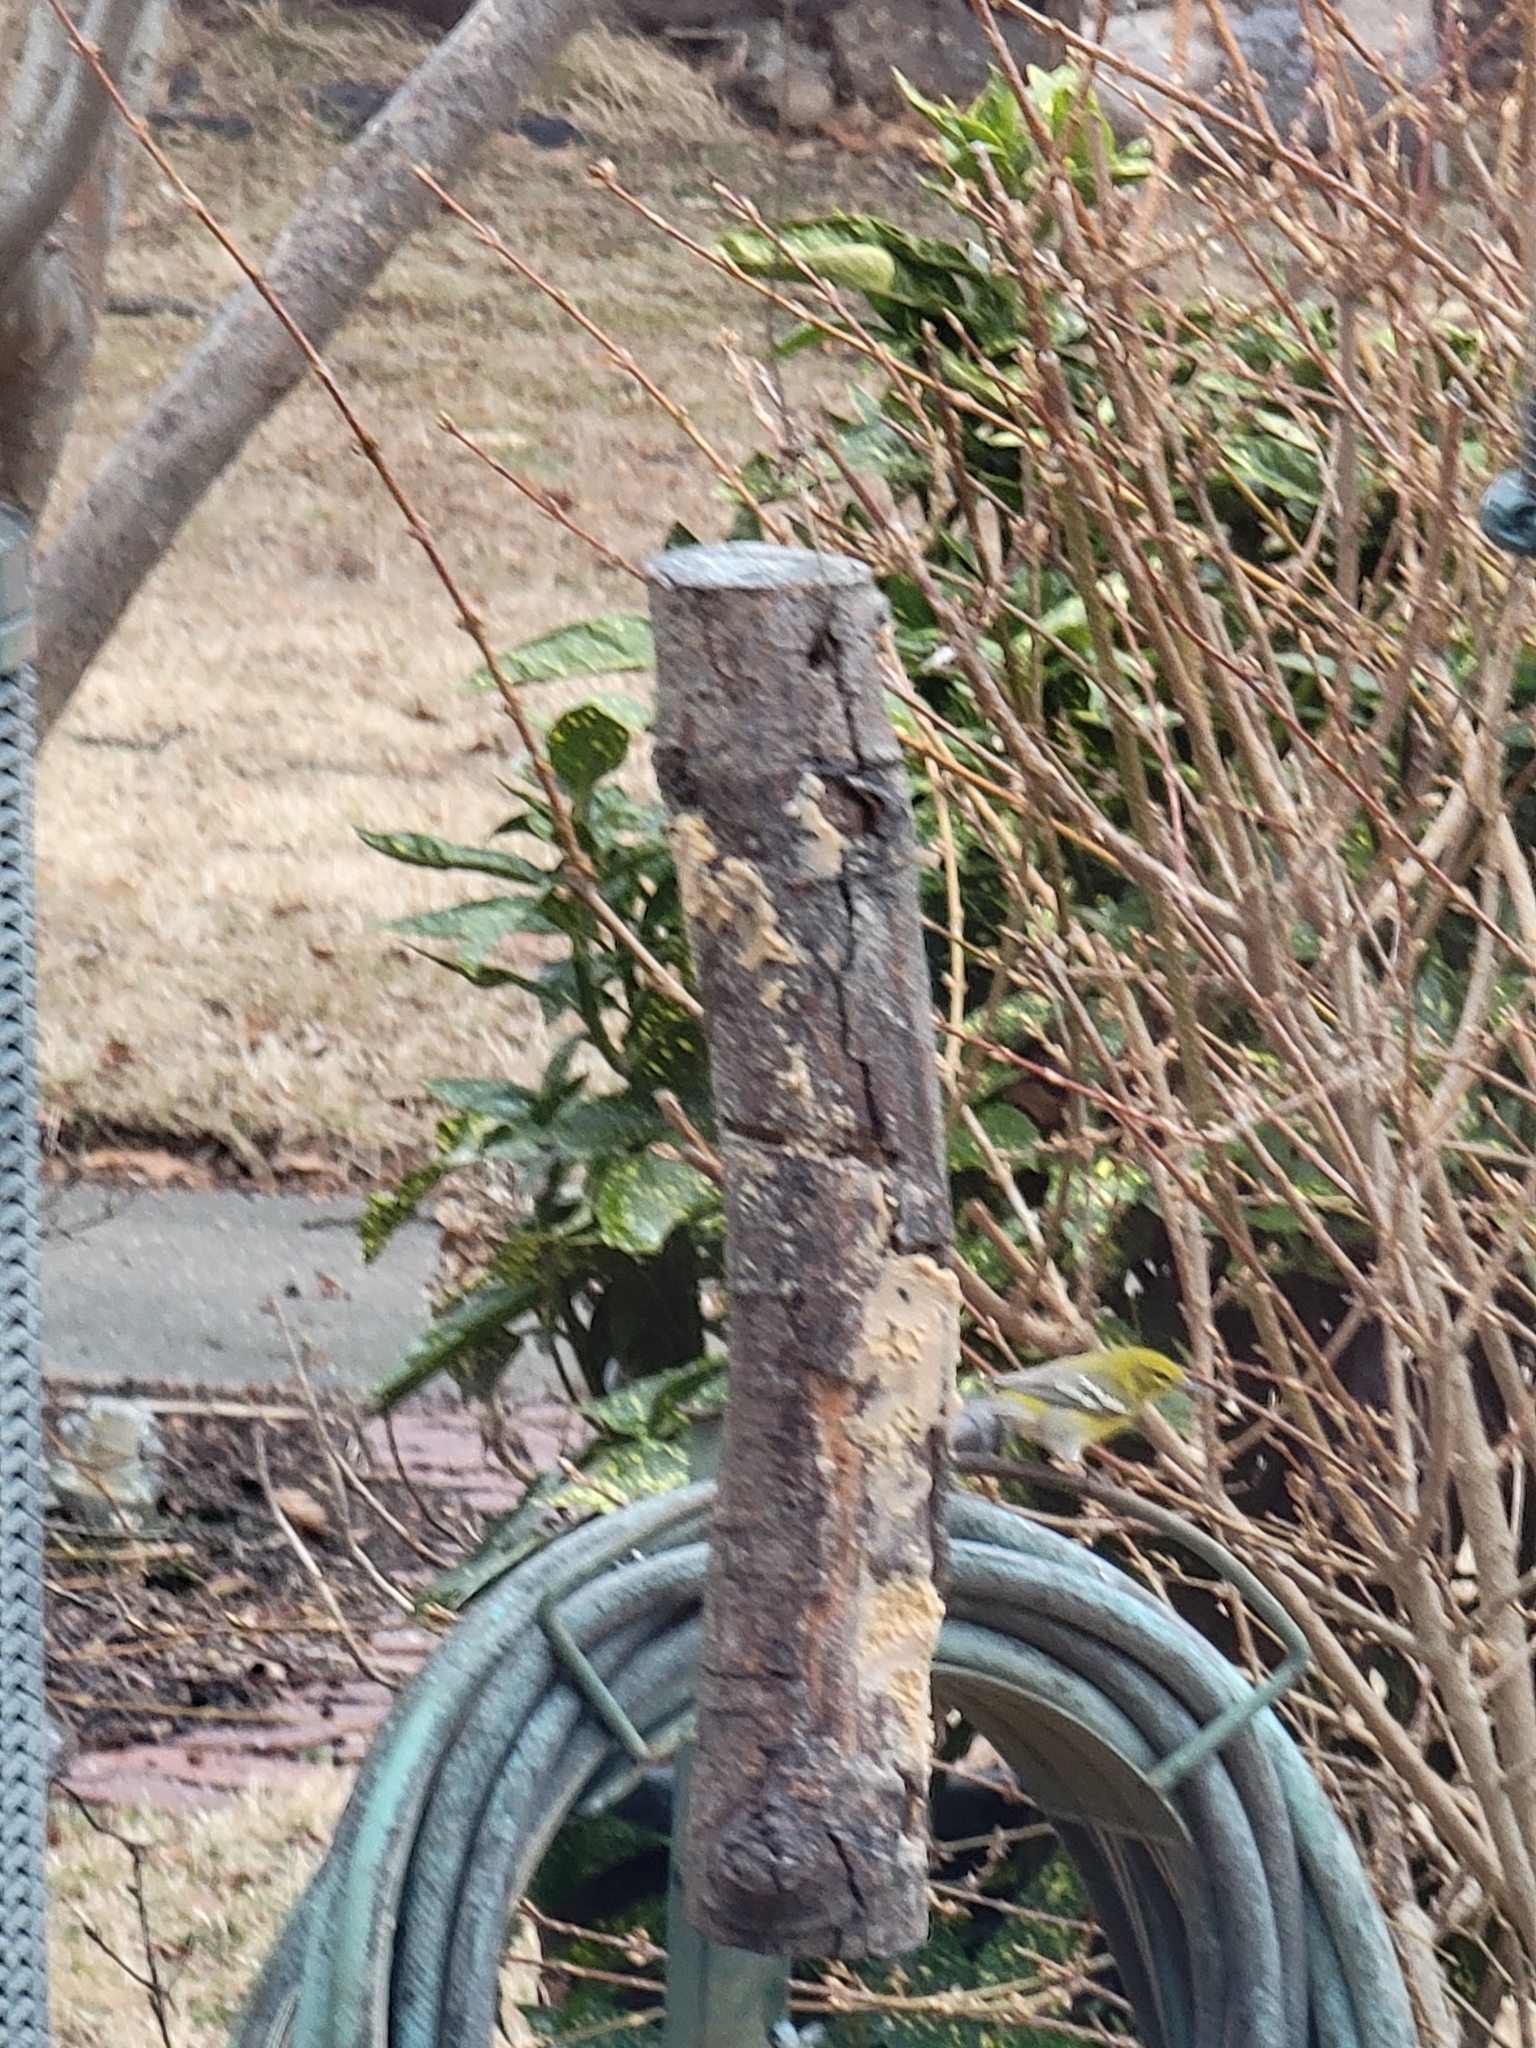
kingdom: Animalia
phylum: Chordata
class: Aves
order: Passeriformes
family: Parulidae
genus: Setophaga
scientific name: Setophaga pinus
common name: Pine warbler
